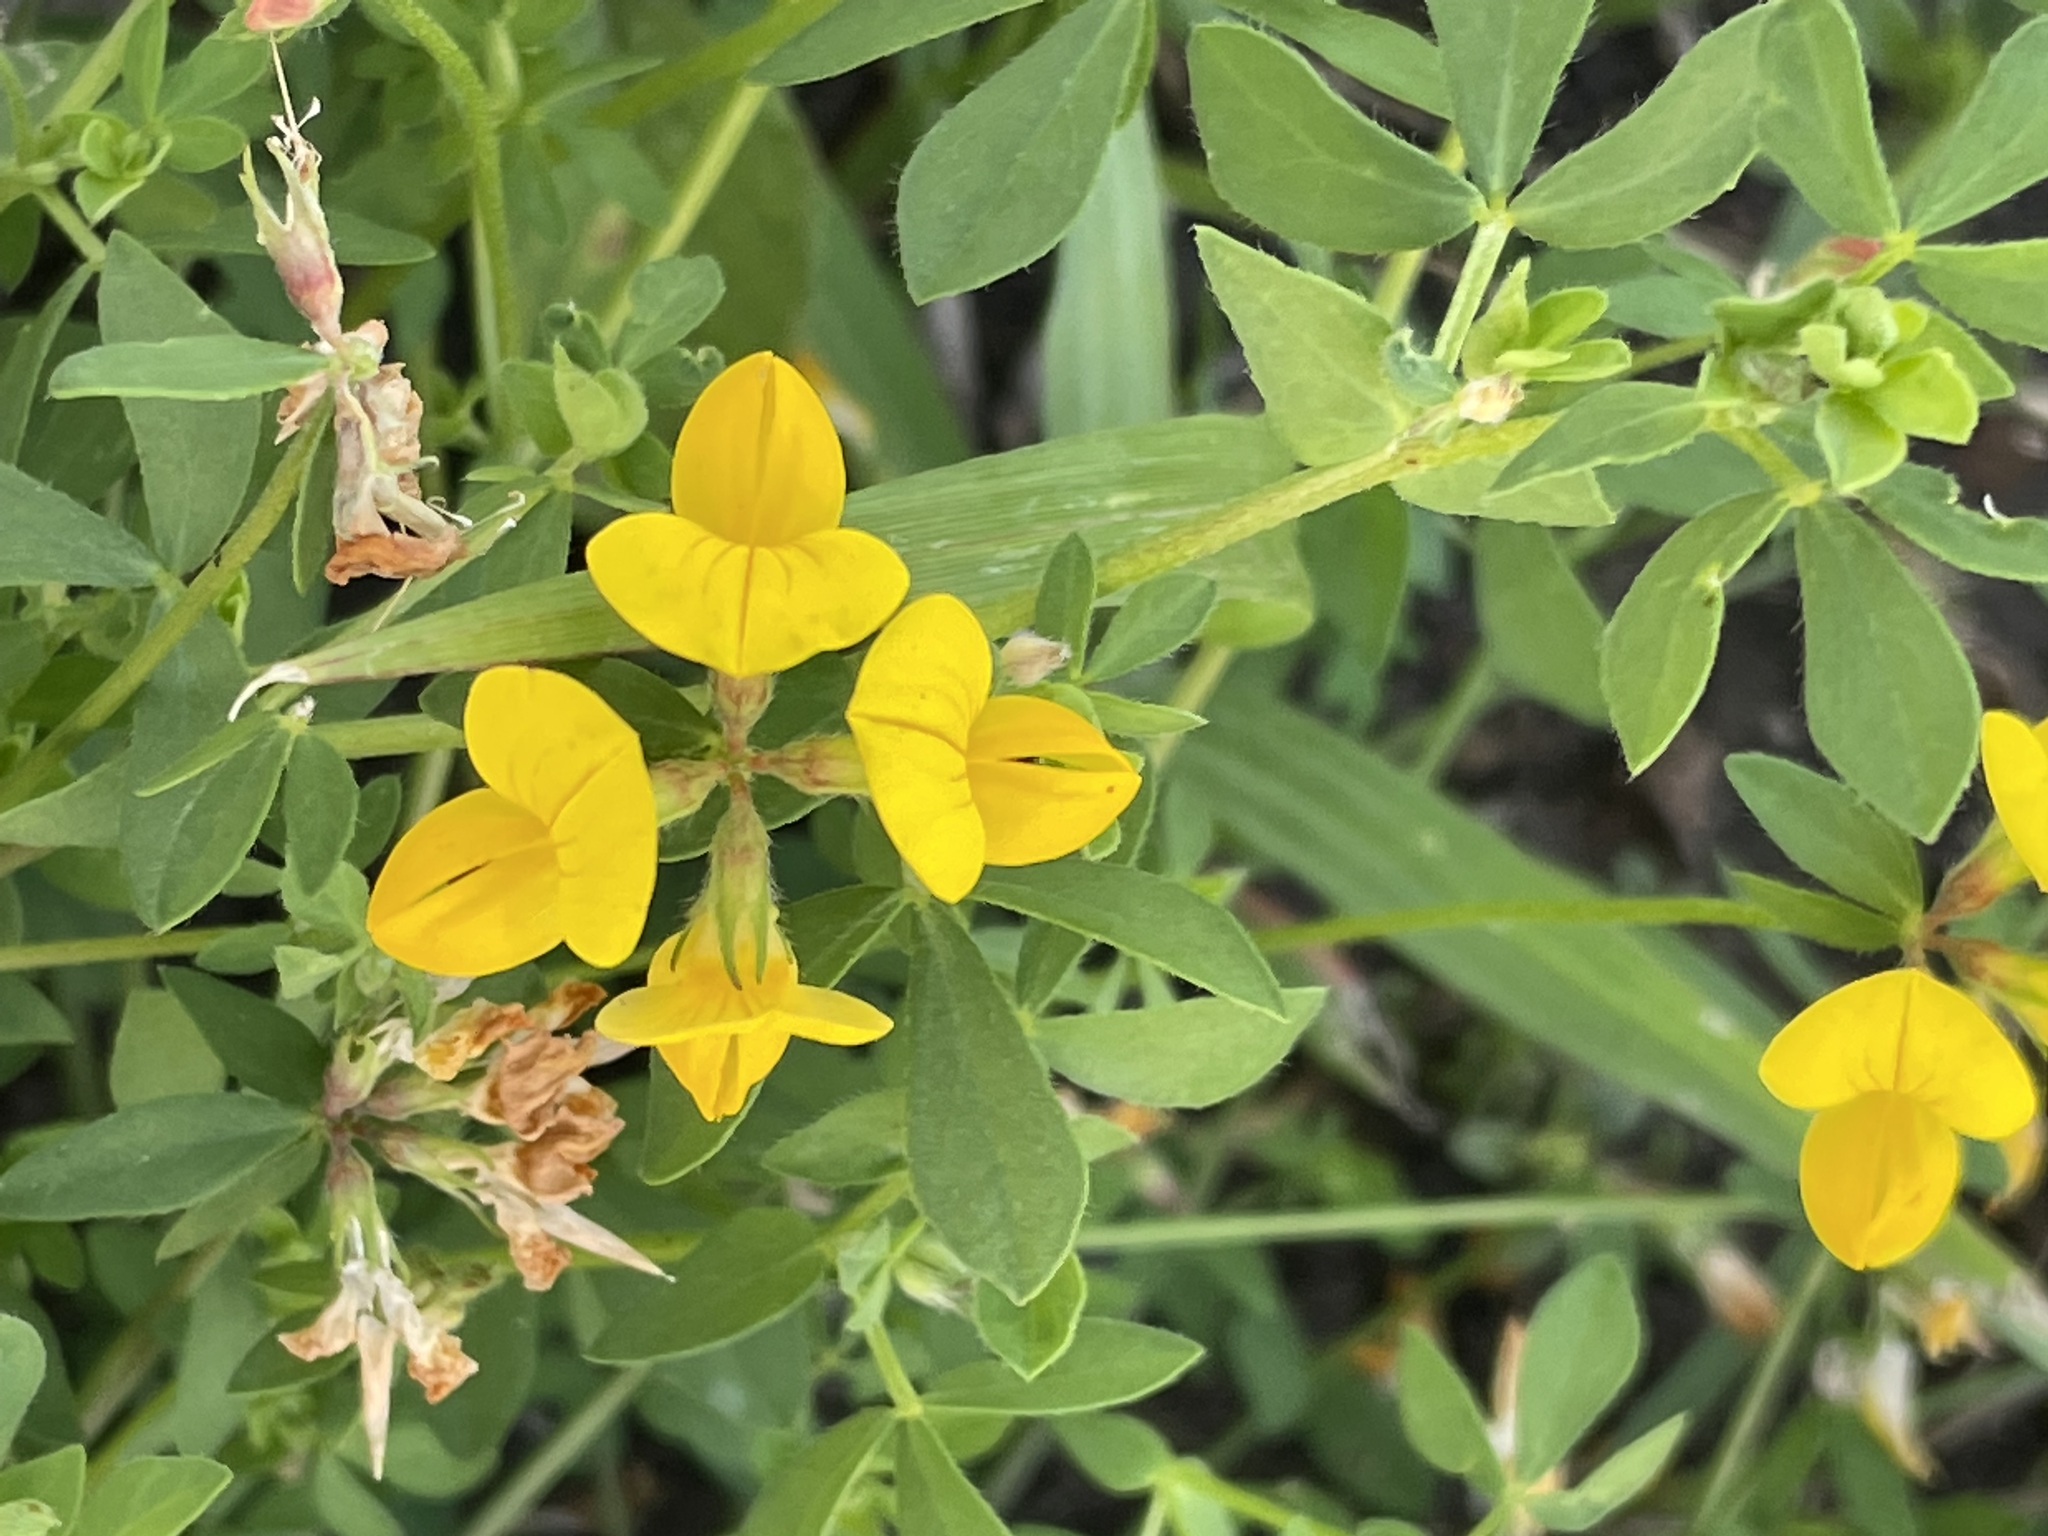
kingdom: Plantae
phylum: Tracheophyta
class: Magnoliopsida
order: Fabales
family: Fabaceae
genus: Lotus
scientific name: Lotus corniculatus
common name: Common bird's-foot-trefoil
